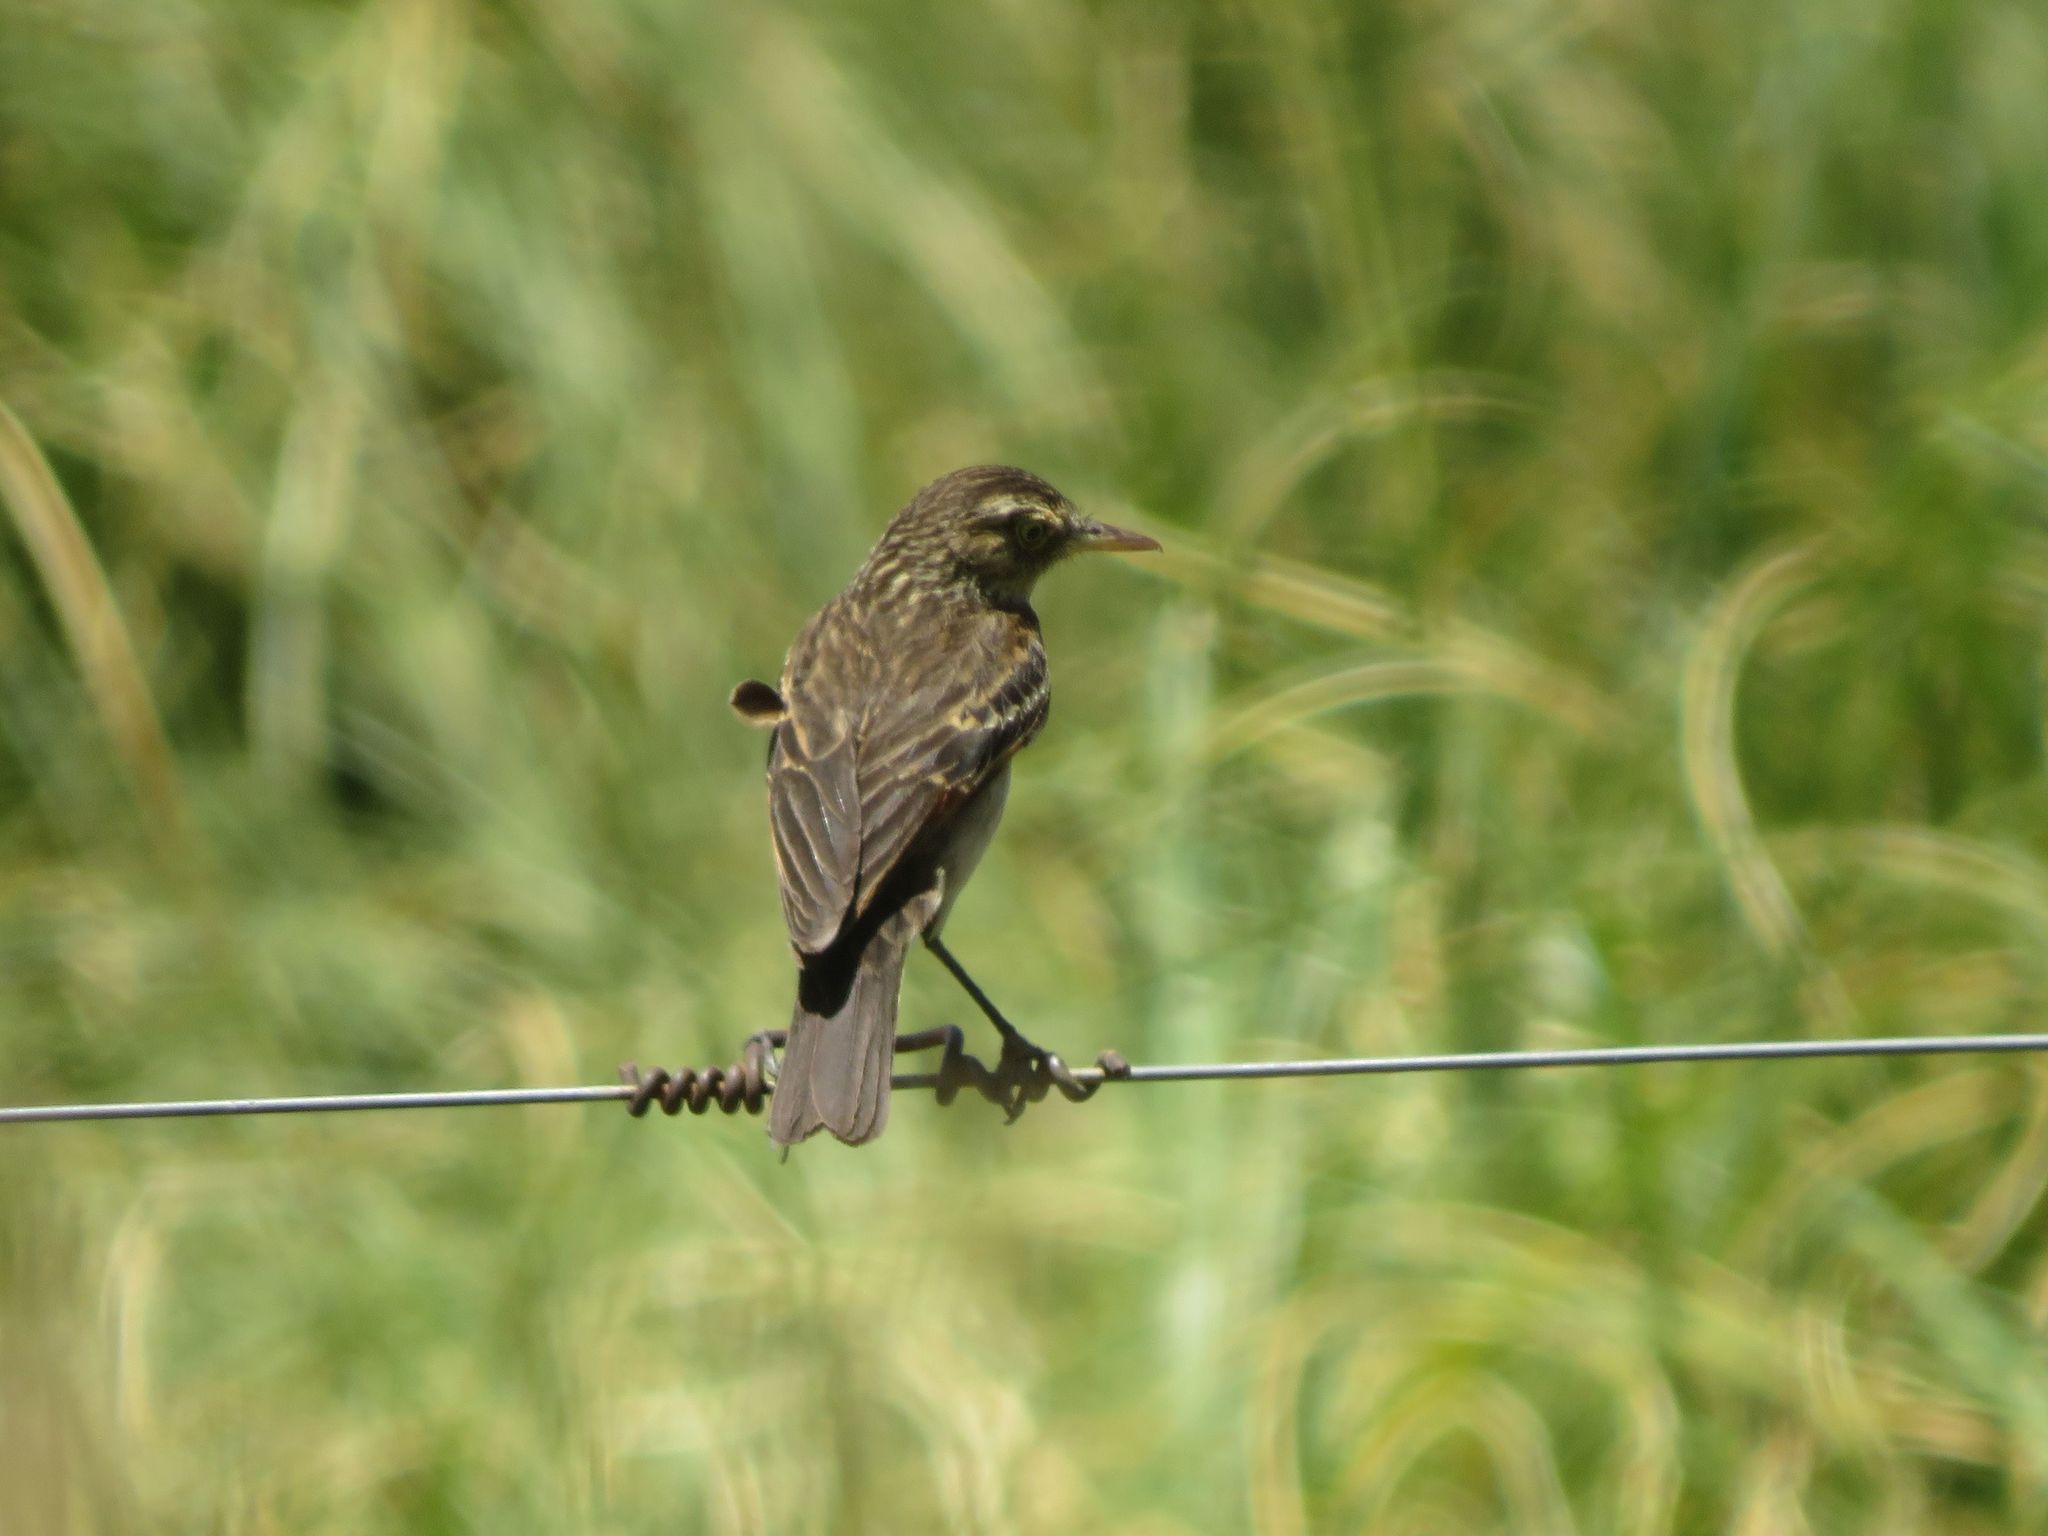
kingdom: Animalia
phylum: Chordata
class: Aves
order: Passeriformes
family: Tyrannidae
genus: Hymenops
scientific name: Hymenops perspicillatus
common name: Spectacled tyrant
